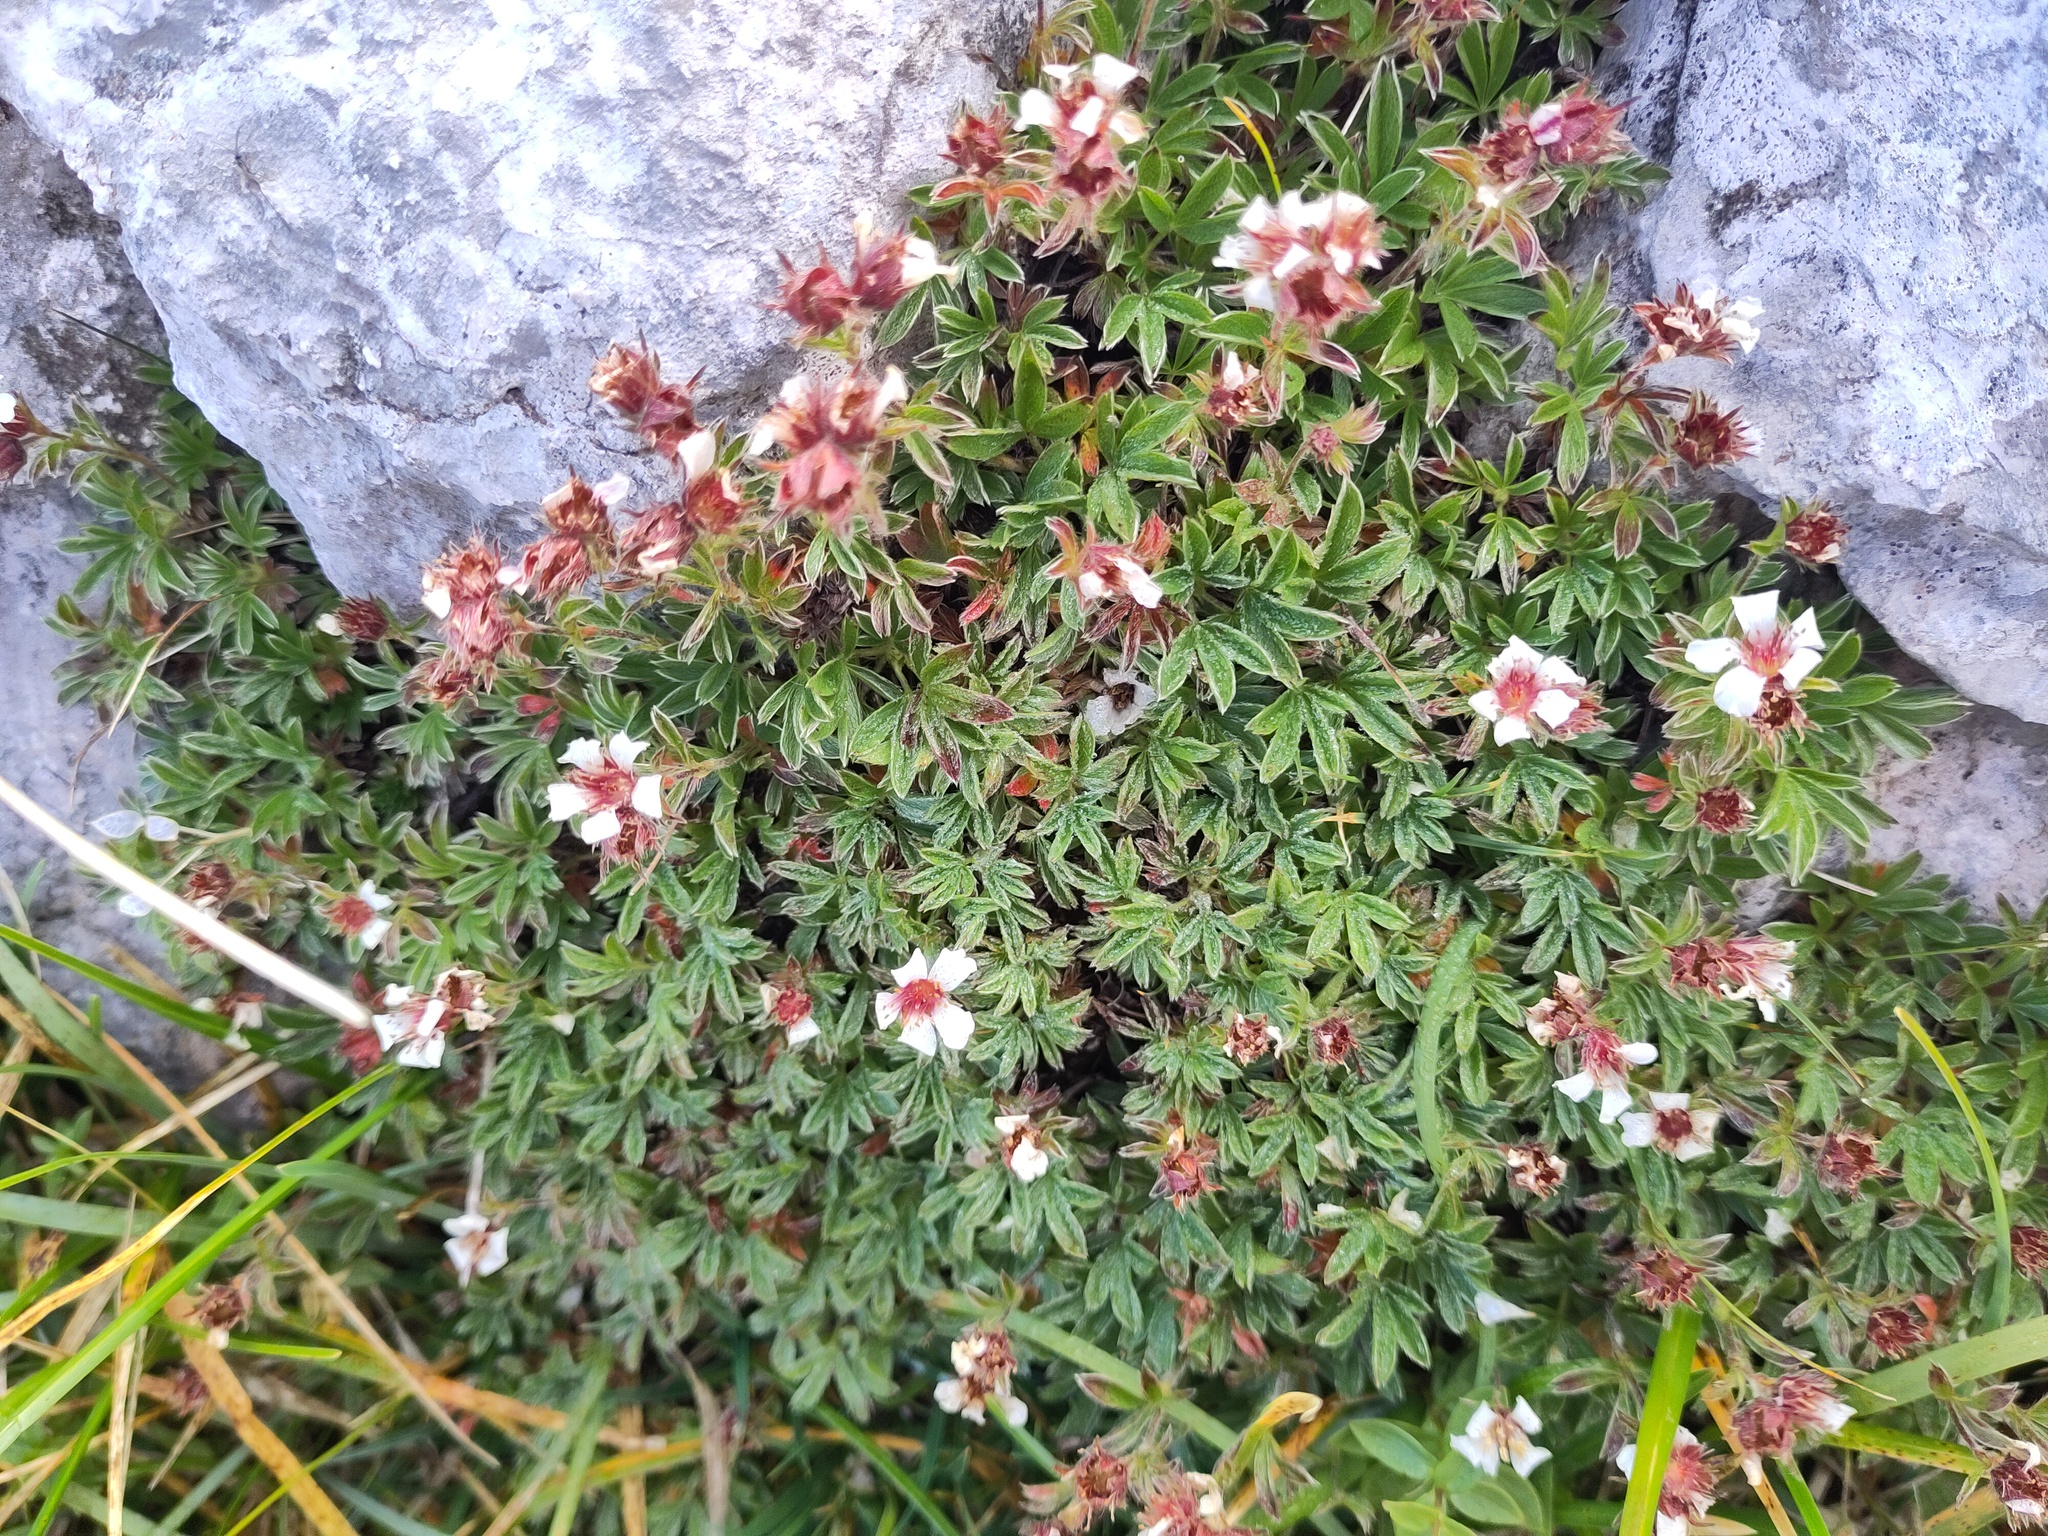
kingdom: Plantae
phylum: Tracheophyta
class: Magnoliopsida
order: Rosales
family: Rosaceae
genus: Potentilla
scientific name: Potentilla clusiana
